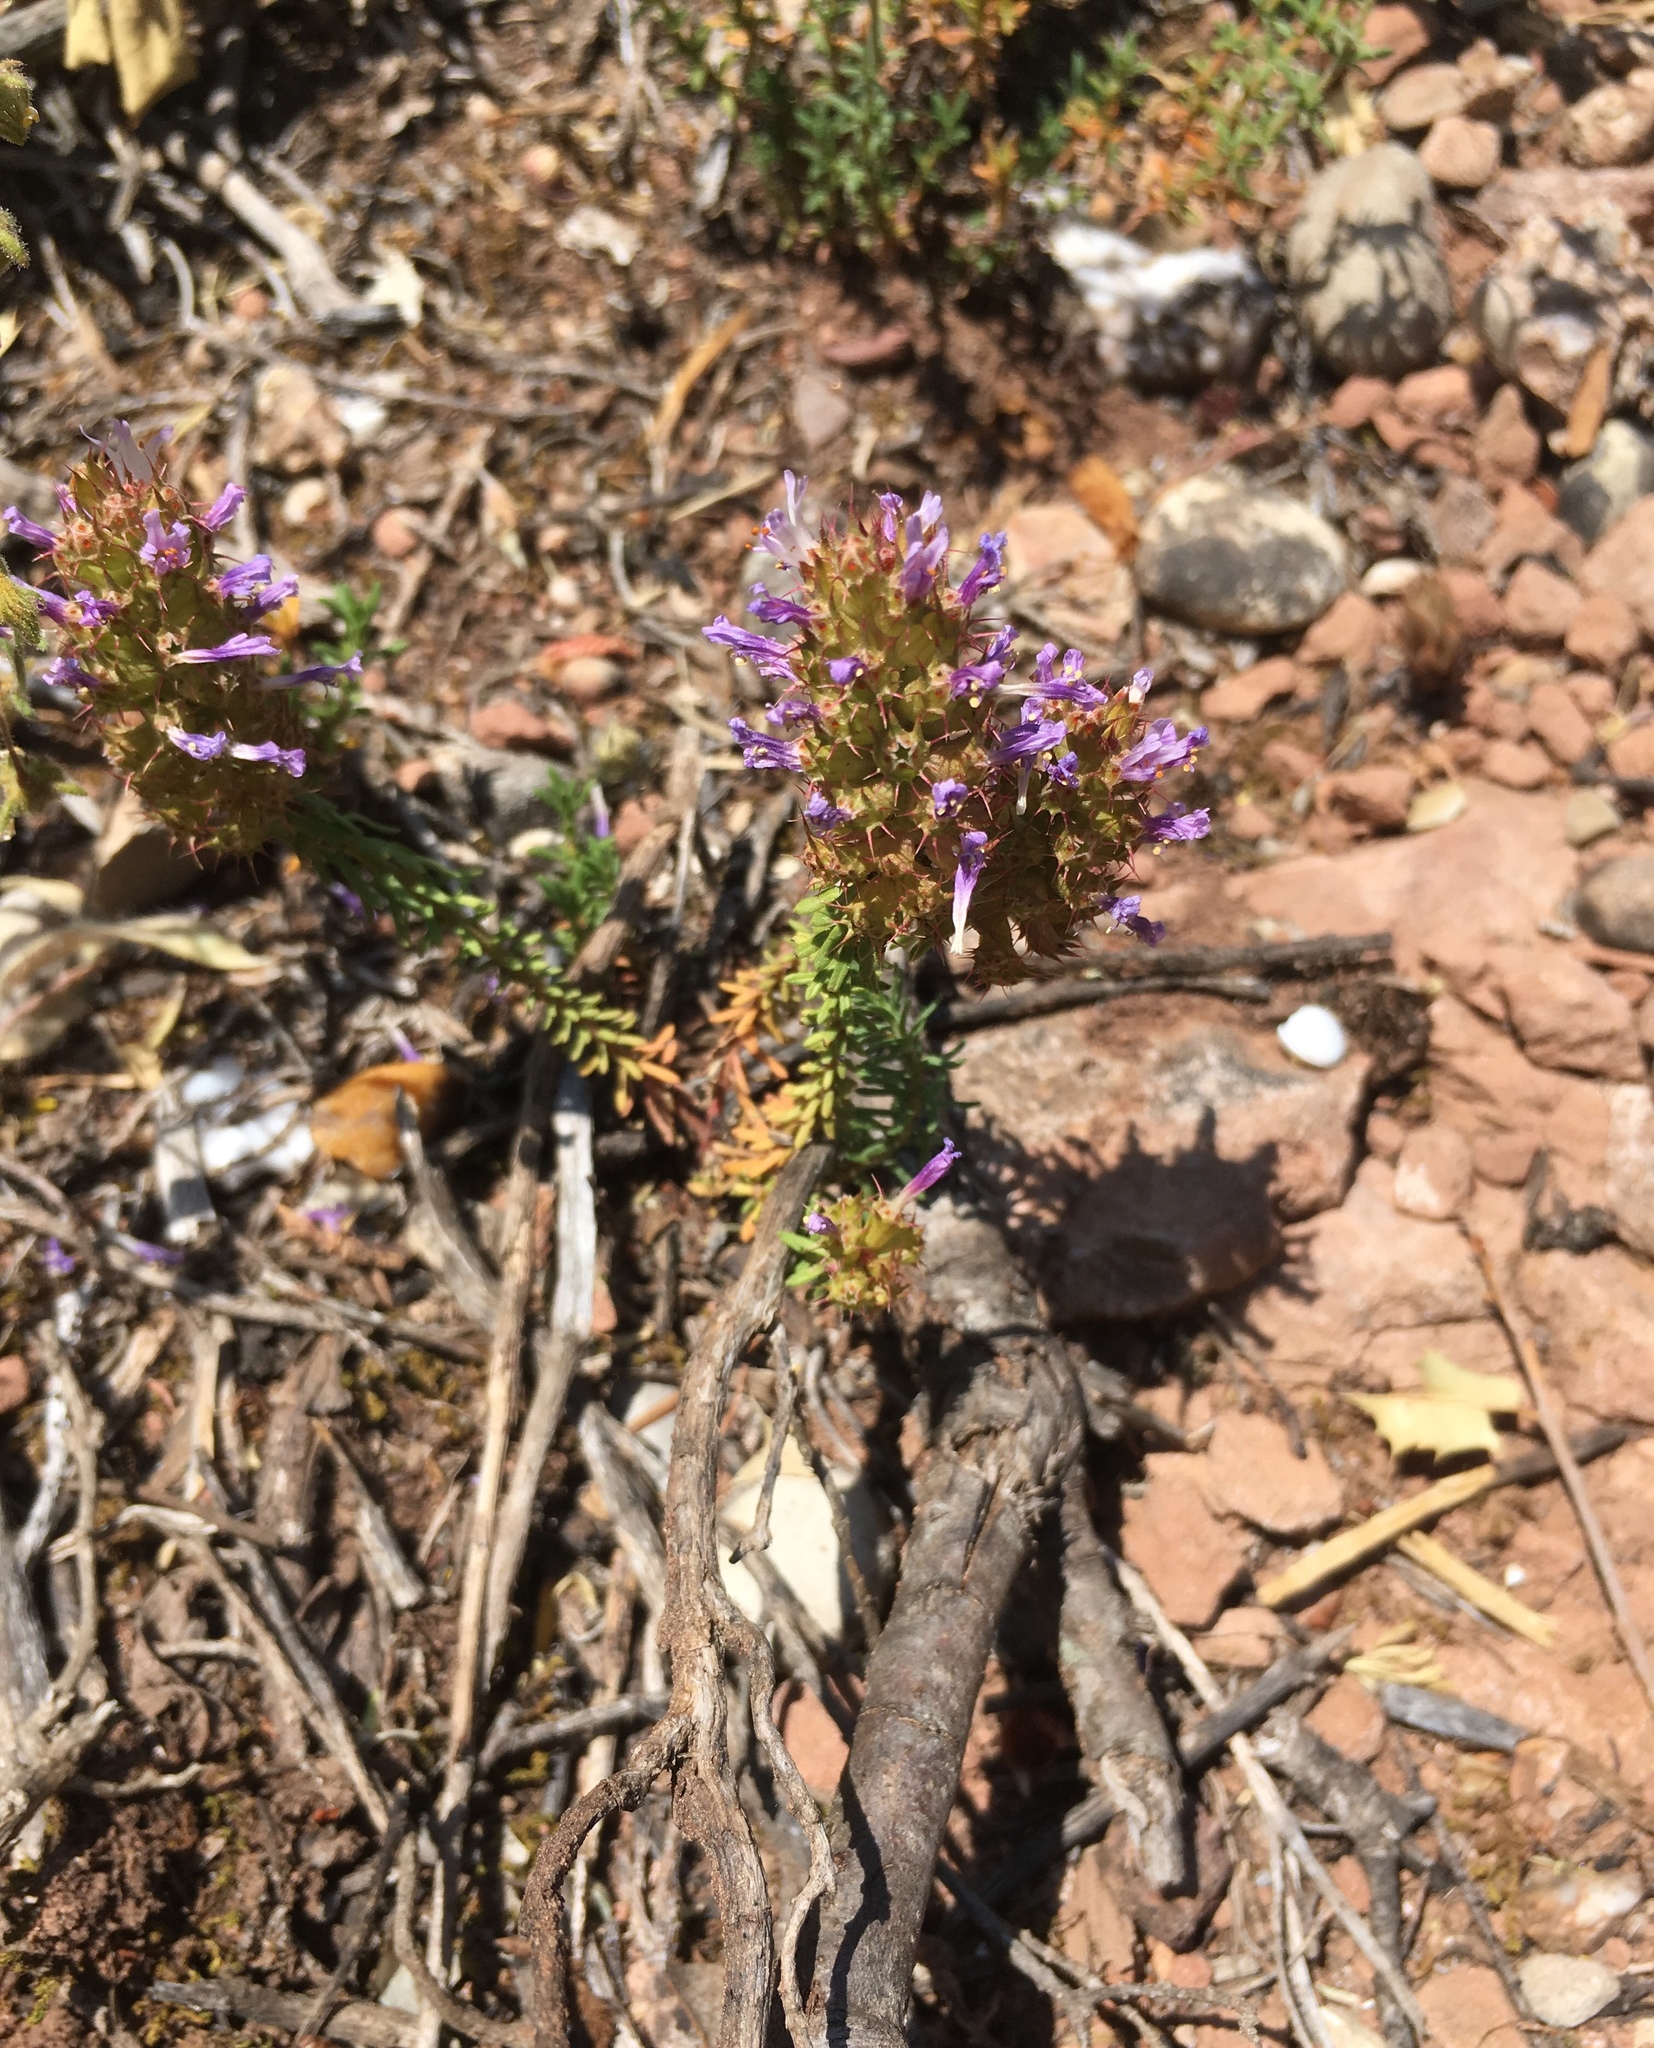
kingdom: Plantae
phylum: Tracheophyta
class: Magnoliopsida
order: Ericales
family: Primulaceae
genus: Coris
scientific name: Coris monspeliensis
